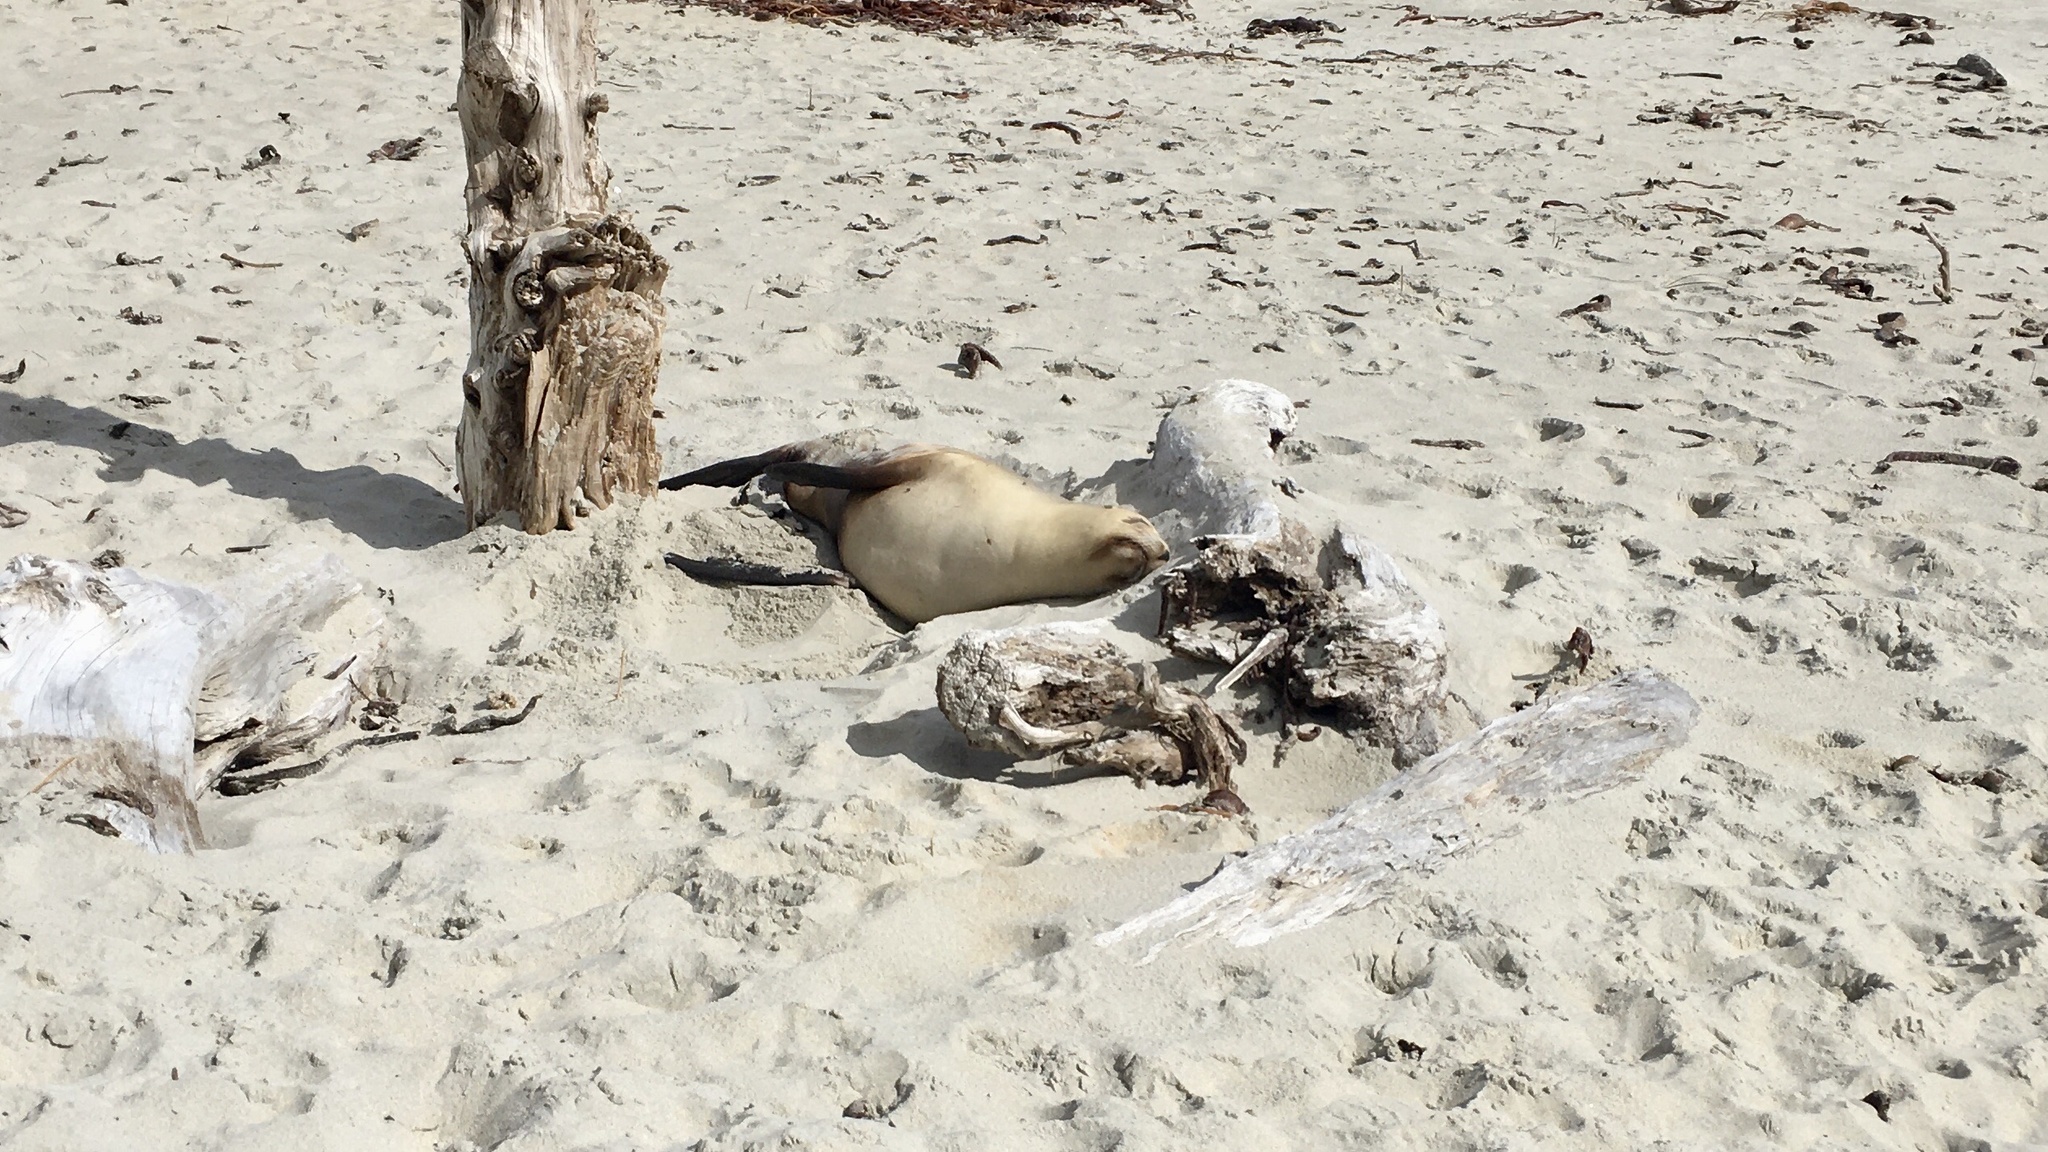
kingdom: Animalia
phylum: Chordata
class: Mammalia
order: Carnivora
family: Otariidae
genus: Phocarctos
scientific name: Phocarctos hookeri
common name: New zealand sea lion
